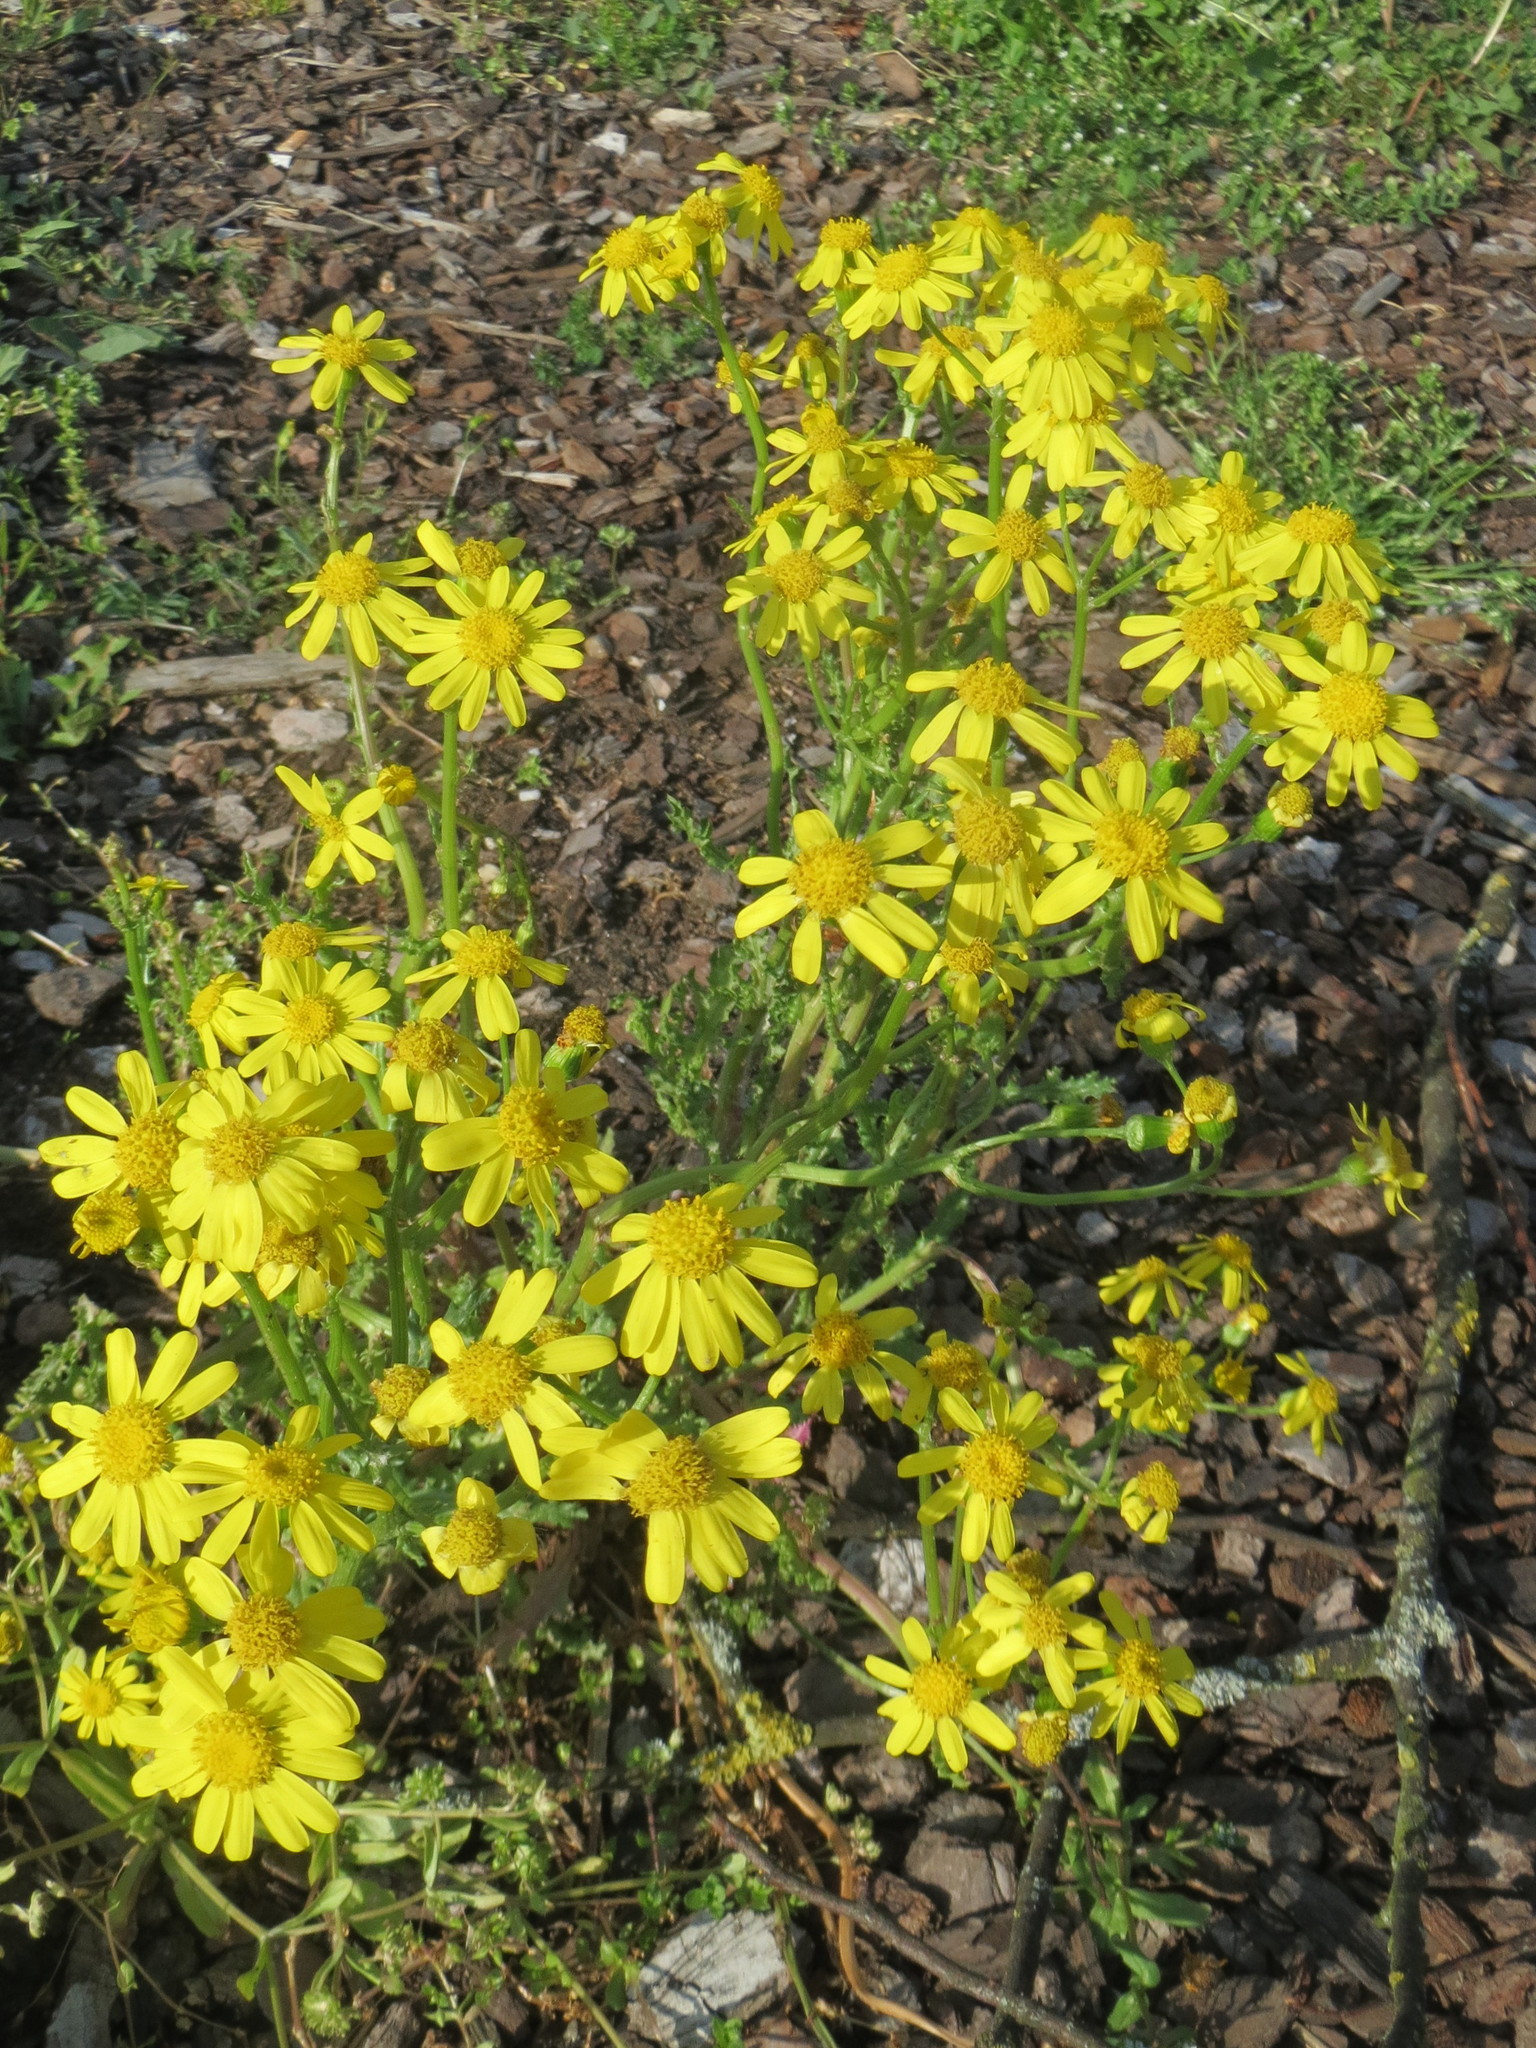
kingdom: Plantae
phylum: Tracheophyta
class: Magnoliopsida
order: Asterales
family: Asteraceae
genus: Senecio
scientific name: Senecio vernalis
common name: Eastern groundsel
